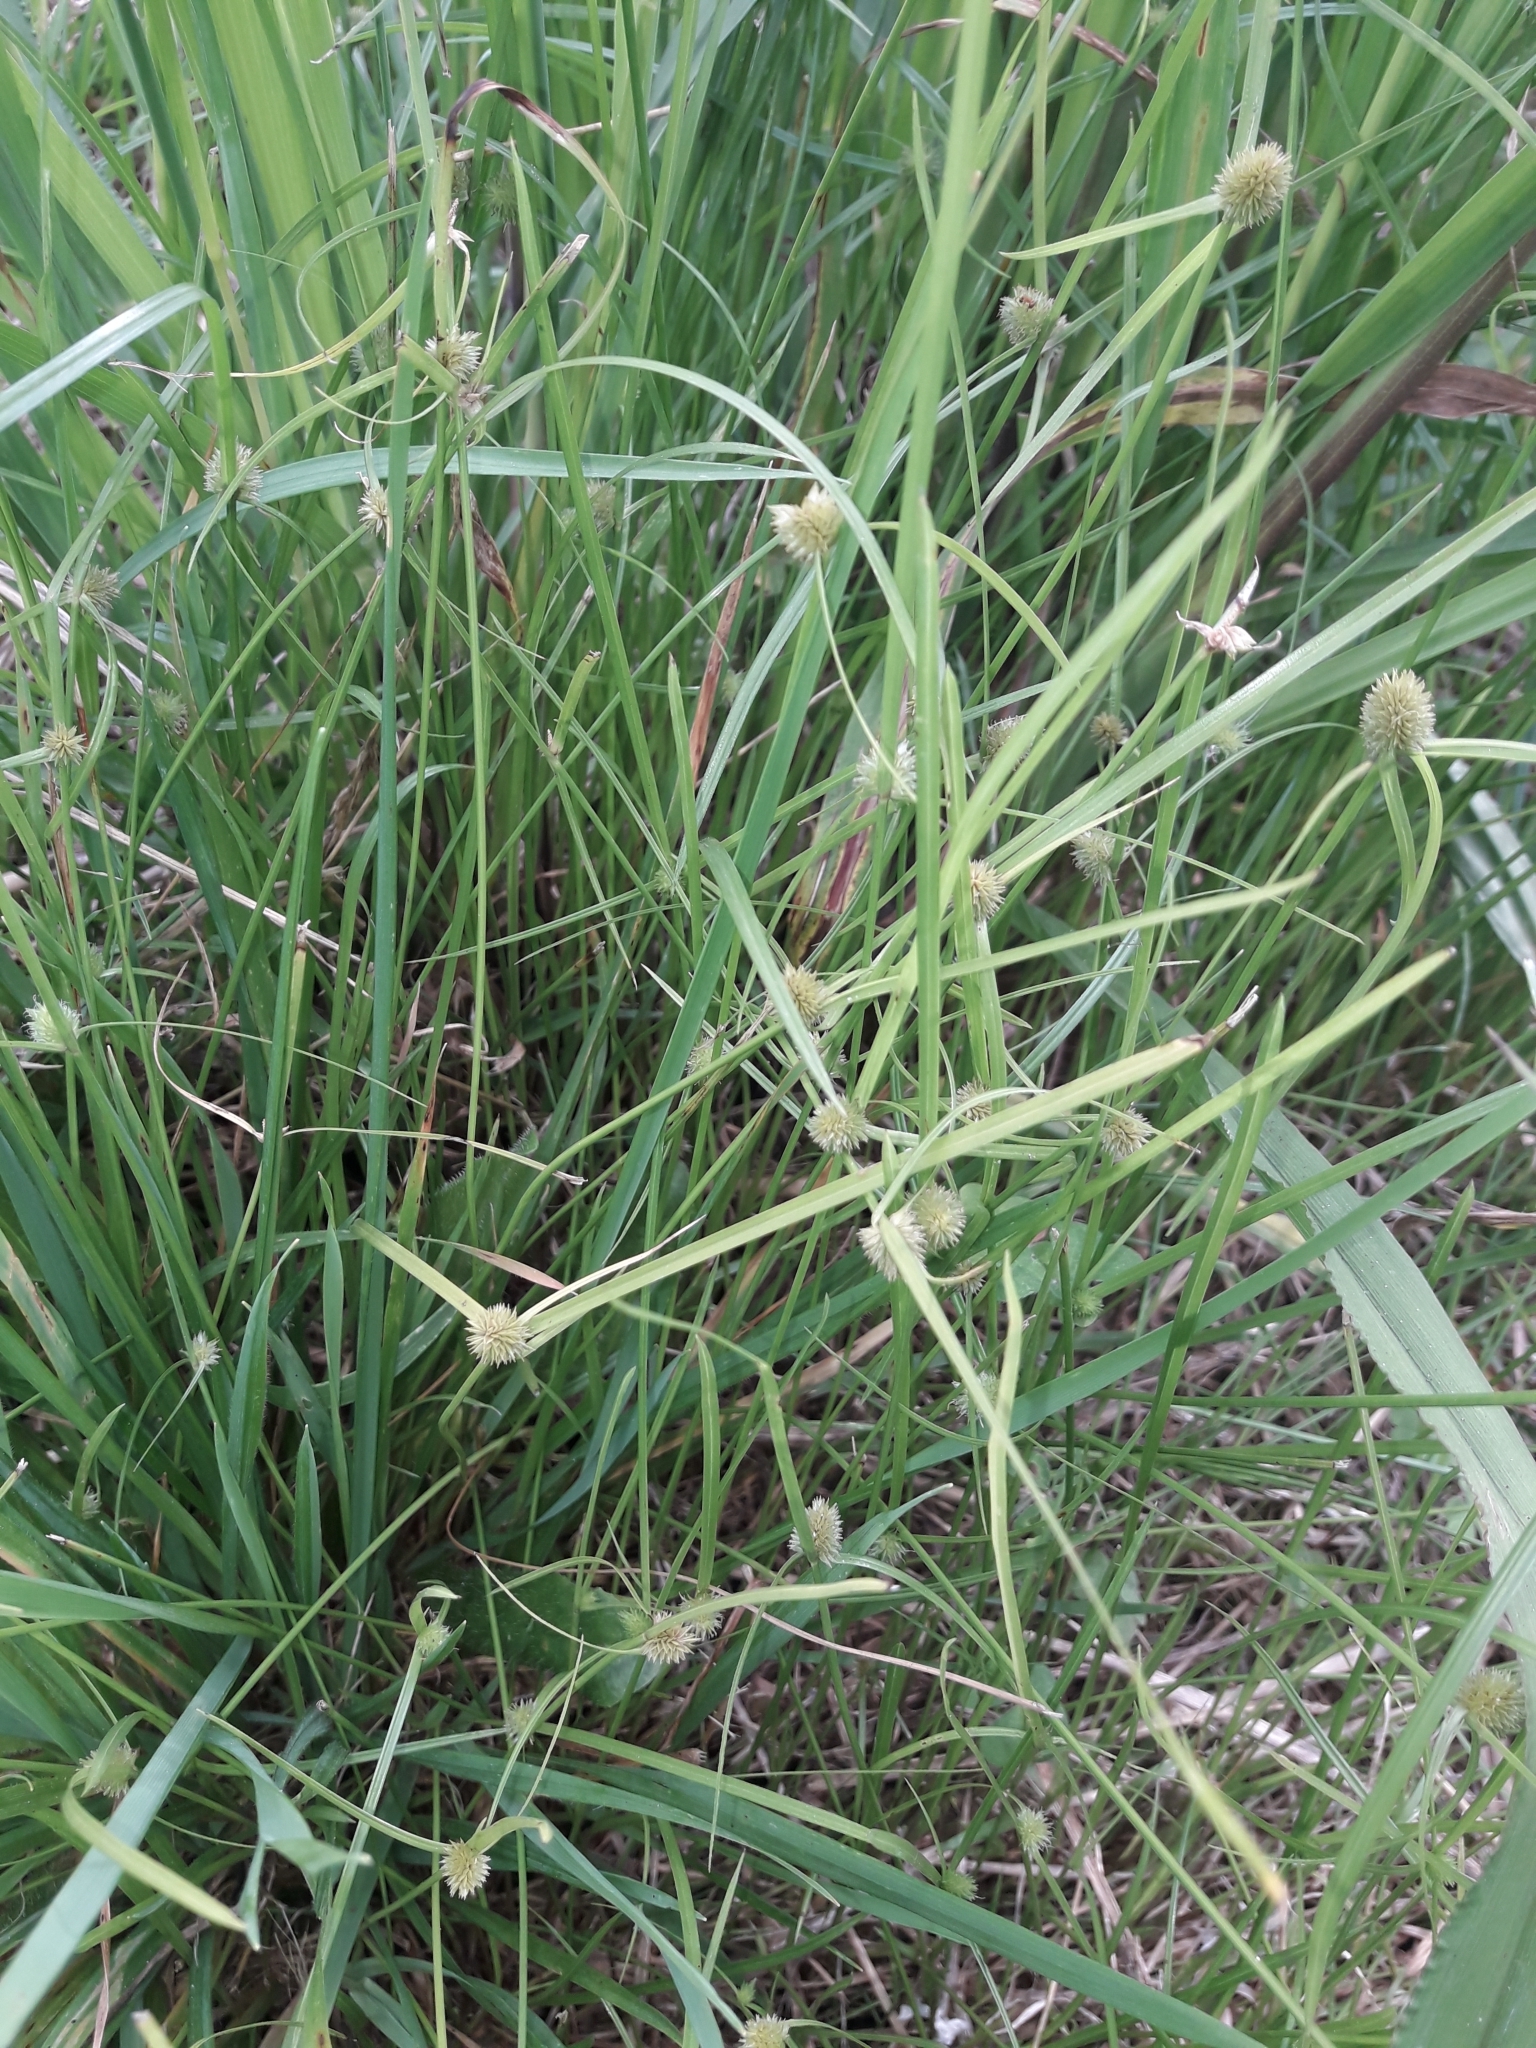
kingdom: Plantae
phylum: Tracheophyta
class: Liliopsida
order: Poales
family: Cyperaceae
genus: Cyperus
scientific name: Cyperus brevifolius
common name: Globe kyllinga
